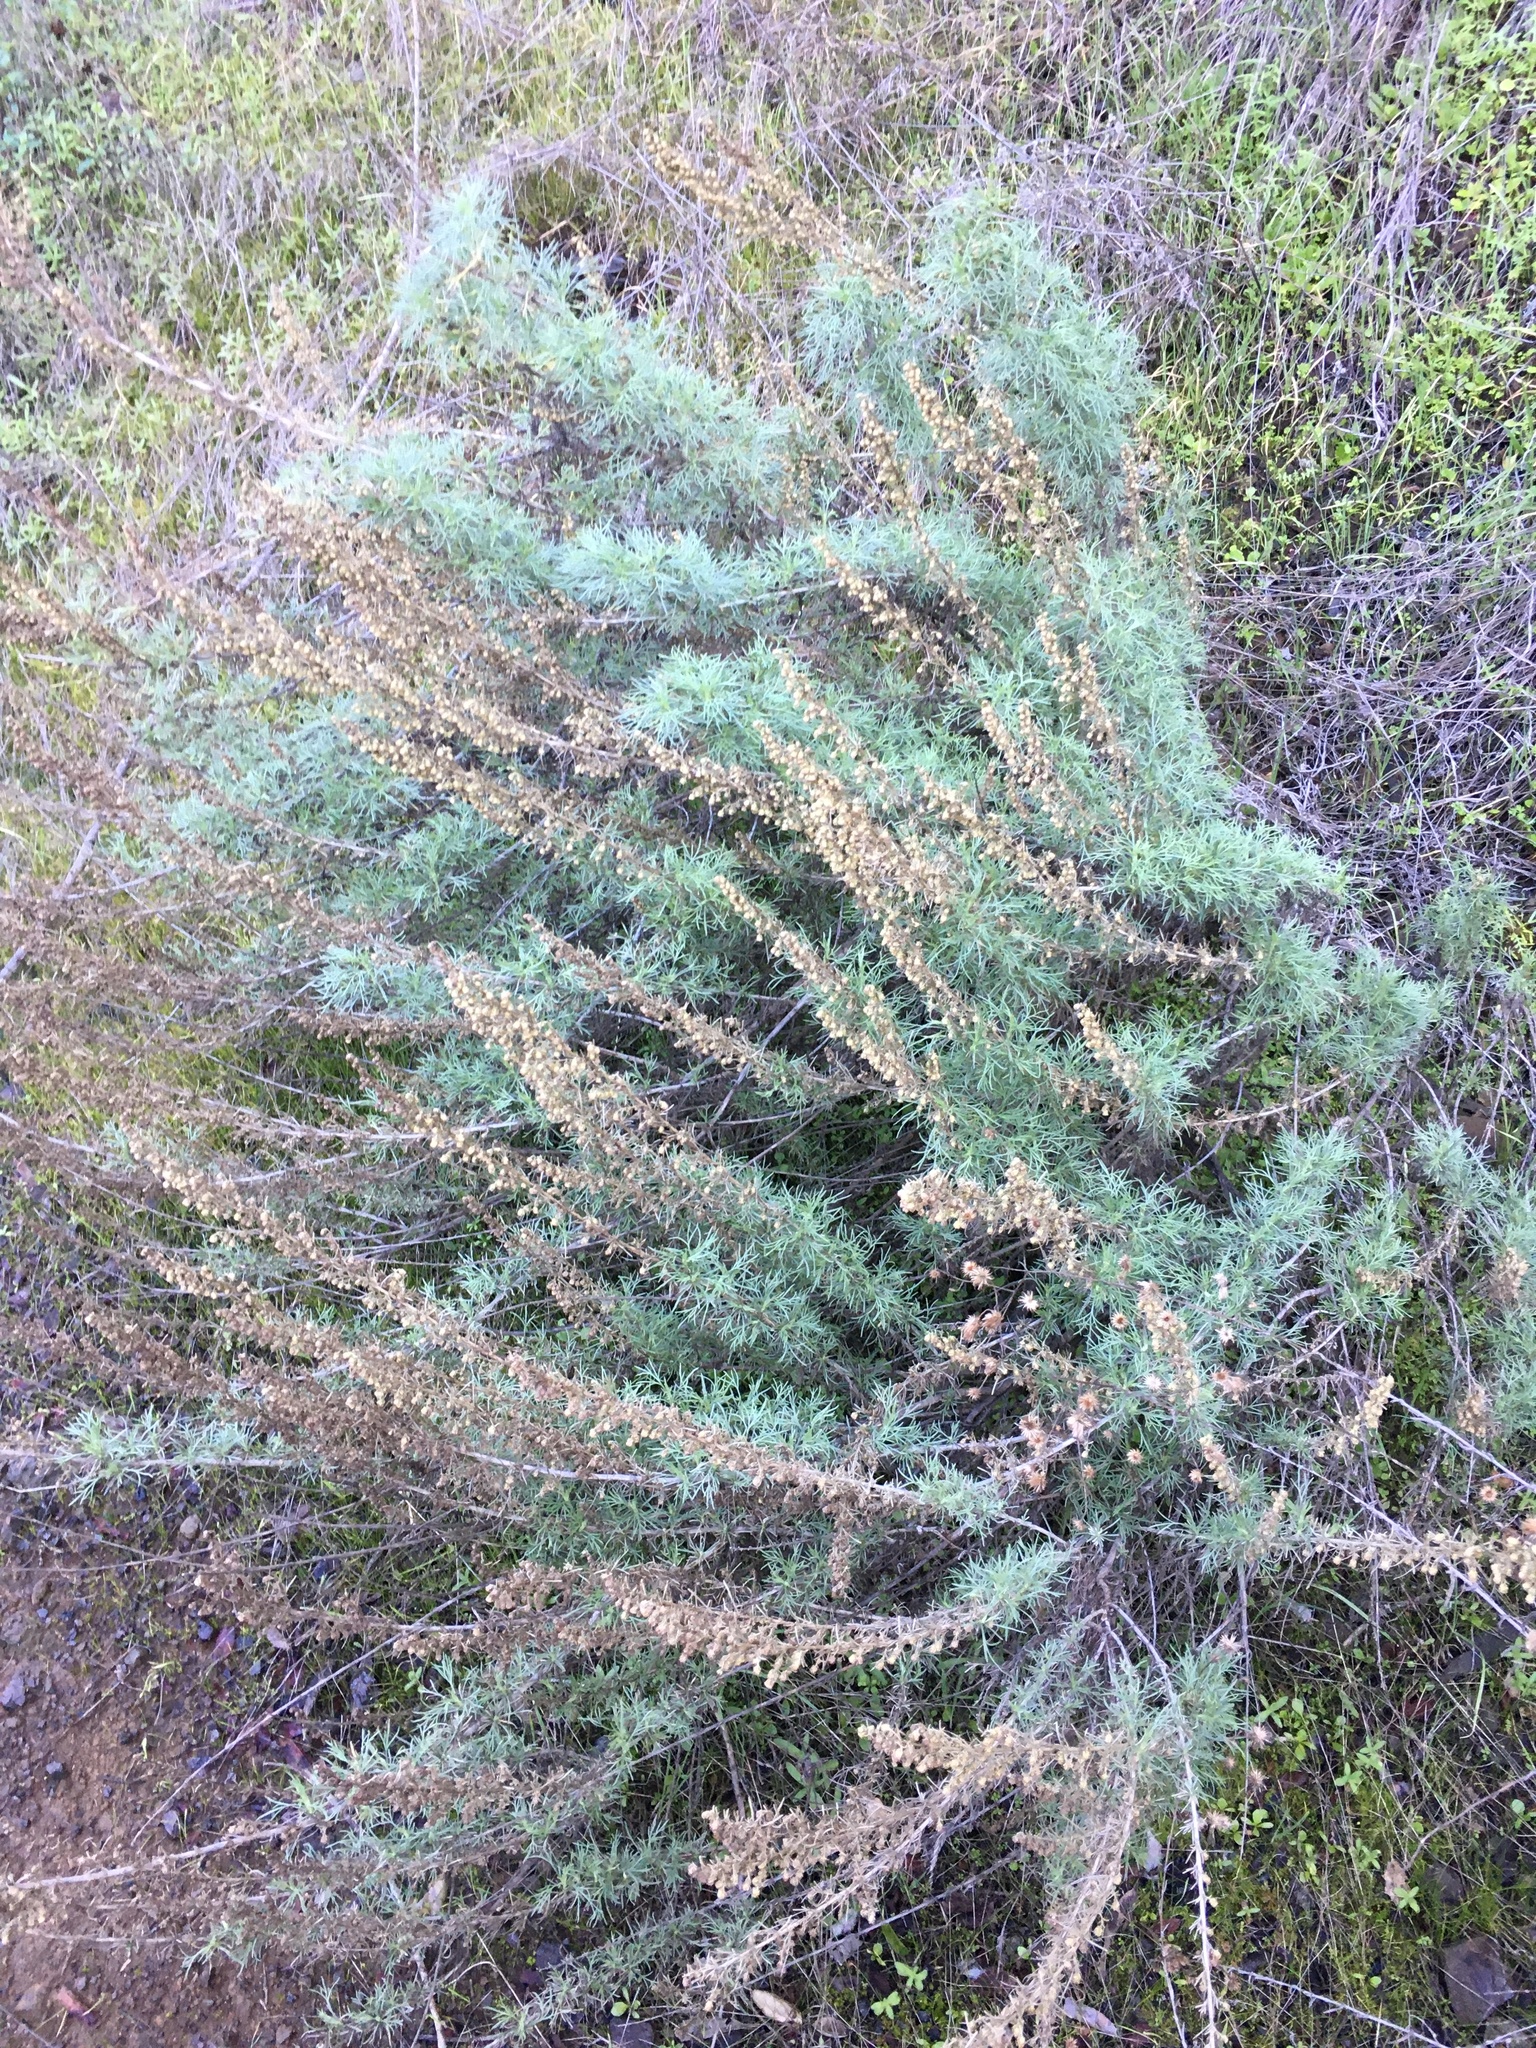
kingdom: Plantae
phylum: Tracheophyta
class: Magnoliopsida
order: Asterales
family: Asteraceae
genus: Artemisia
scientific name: Artemisia californica
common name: California sagebrush
